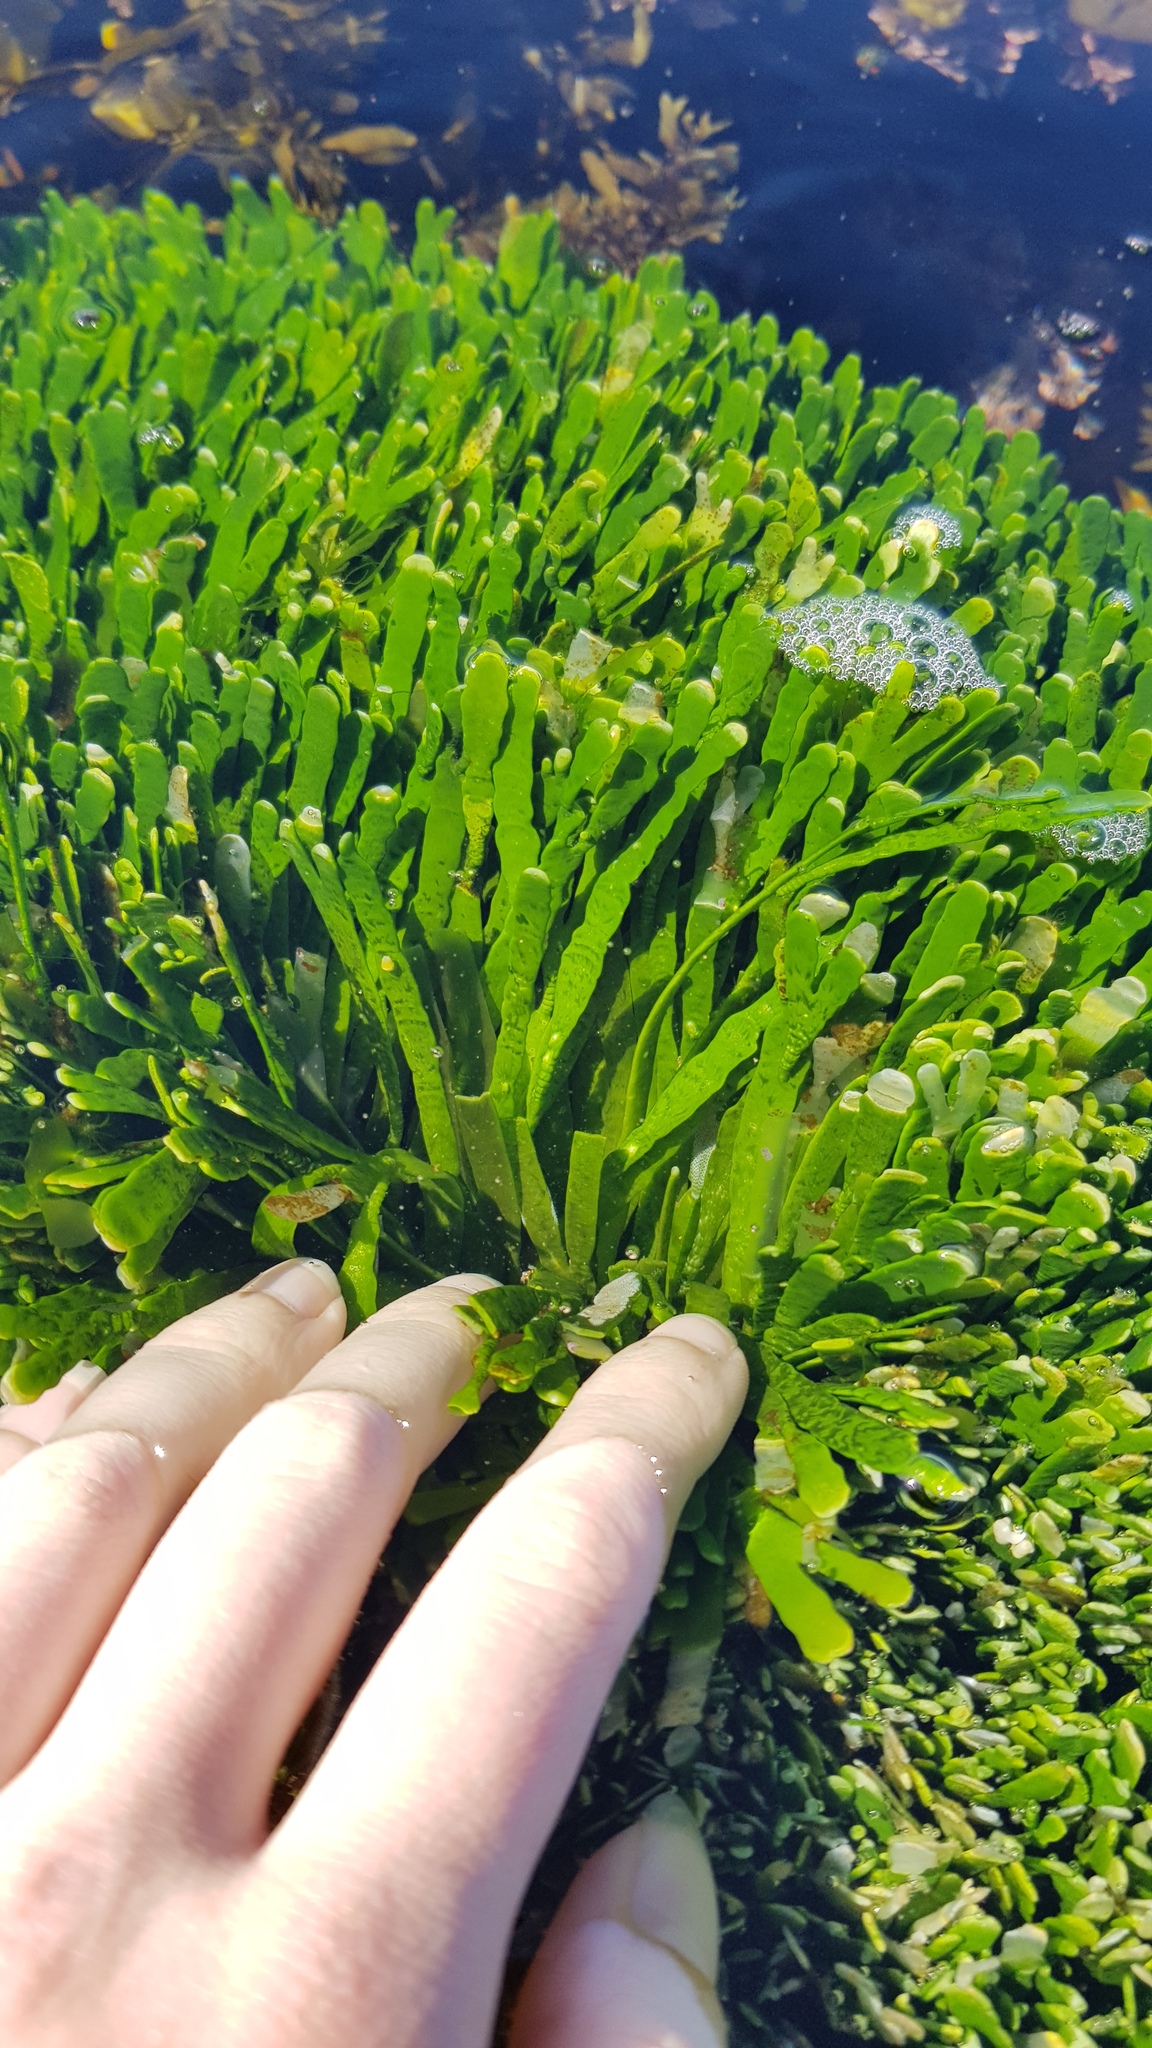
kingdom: Plantae
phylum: Chlorophyta
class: Ulvophyceae
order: Bryopsidales
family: Caulerpaceae
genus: Caulerpa
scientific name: Caulerpa filiformis
